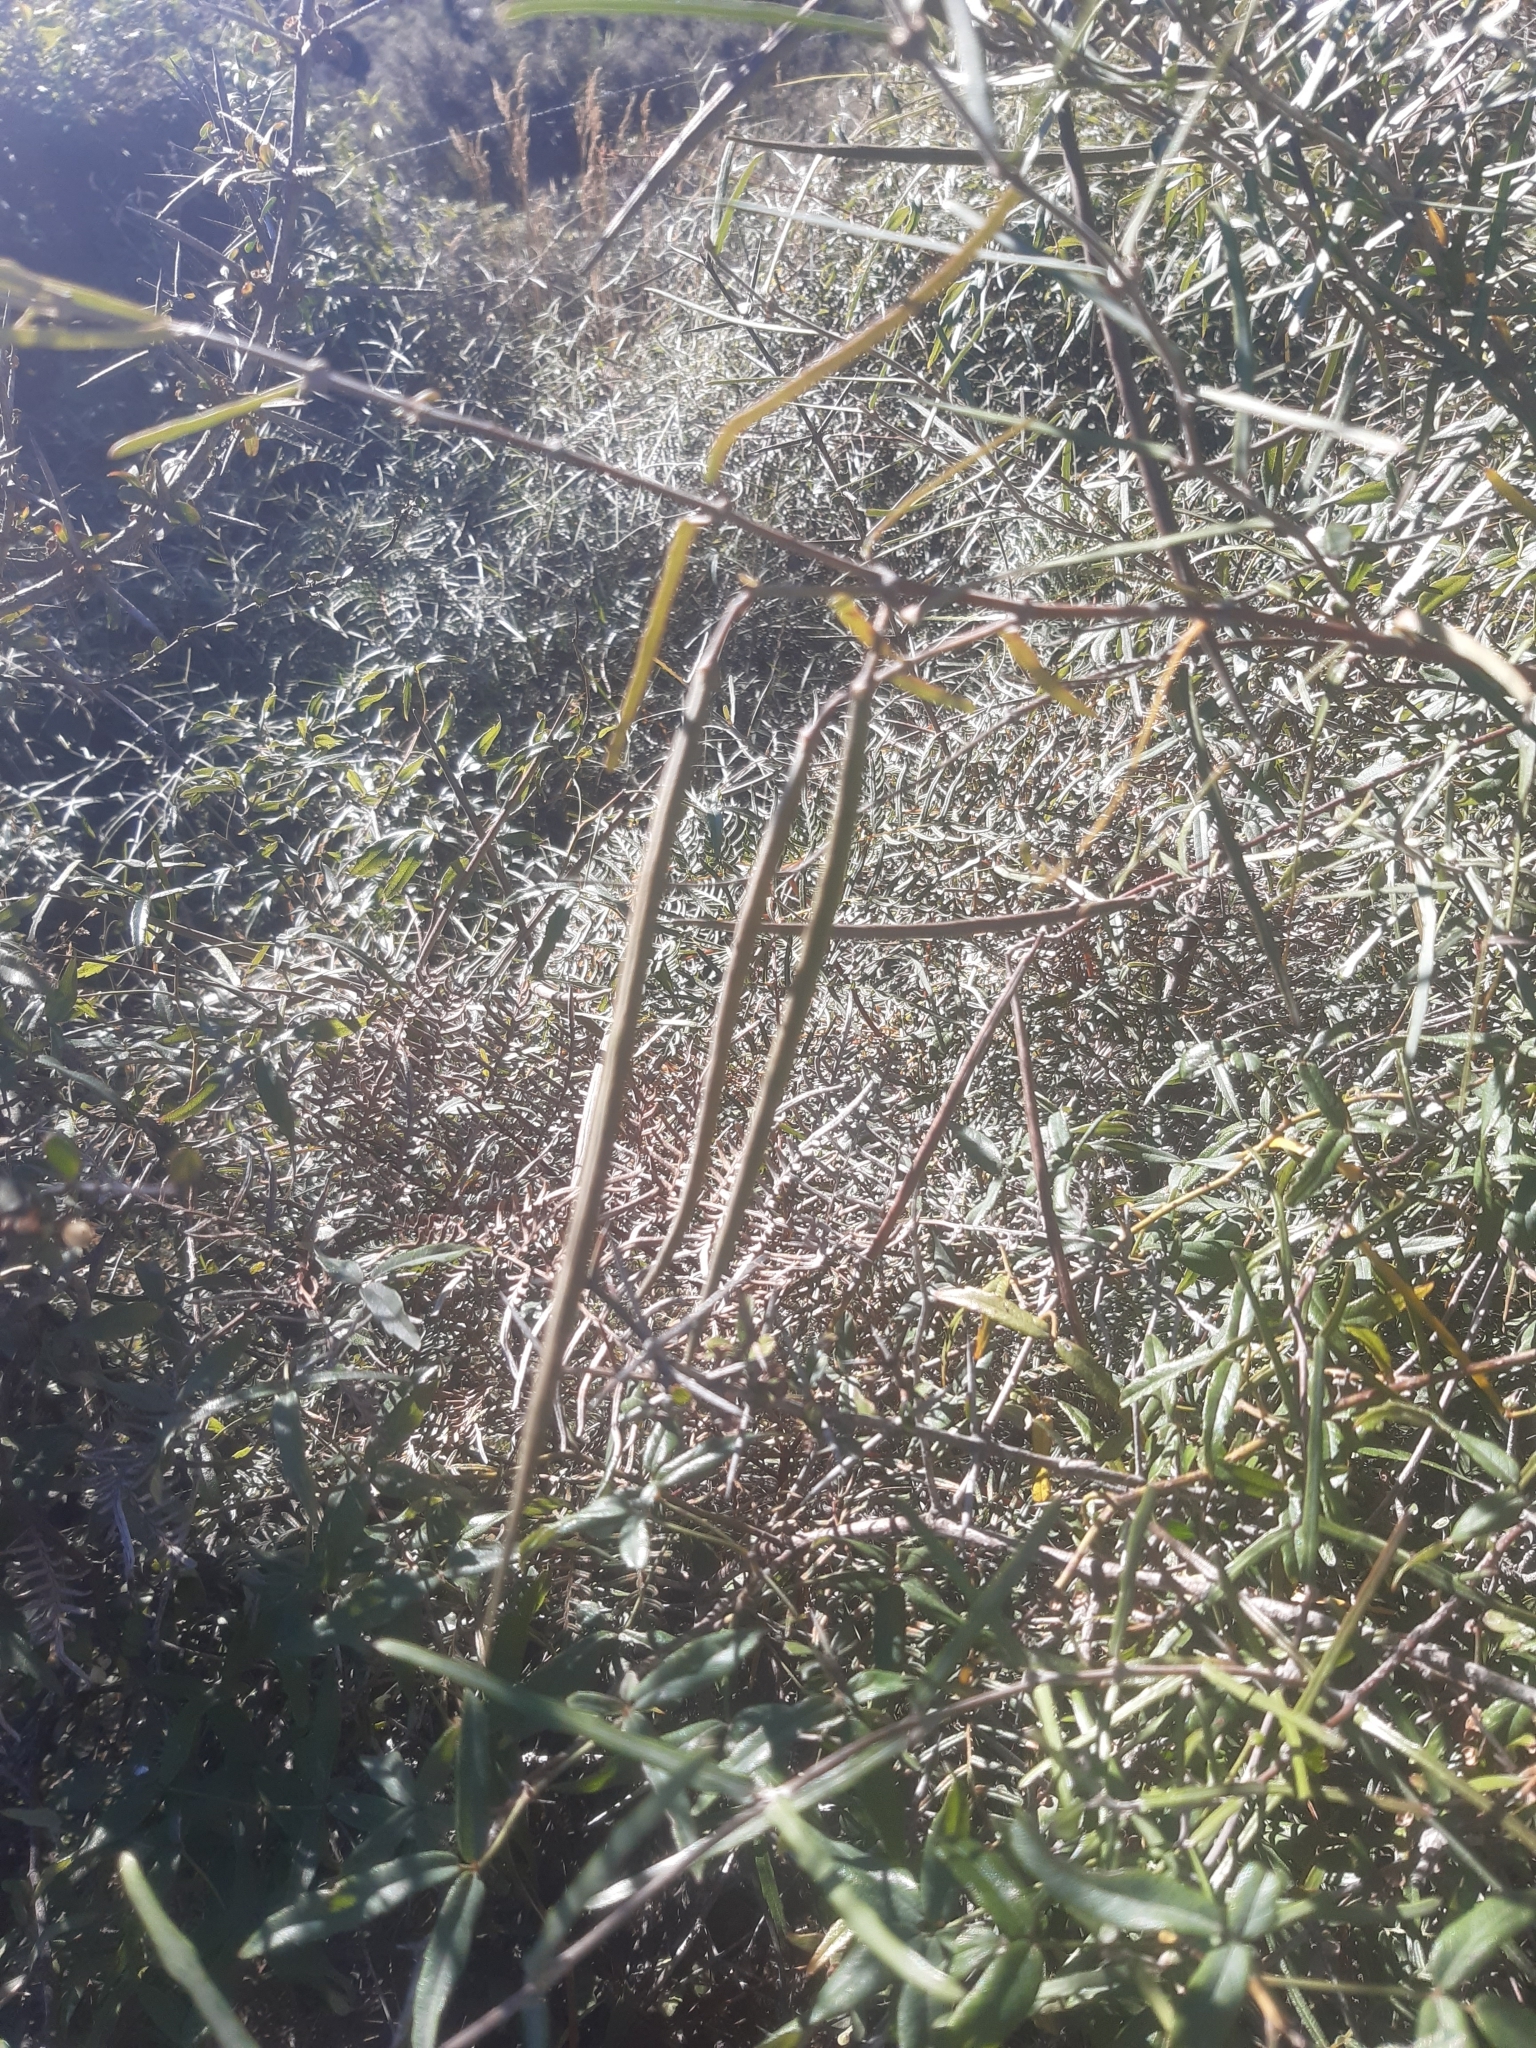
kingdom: Plantae
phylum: Tracheophyta
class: Magnoliopsida
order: Gentianales
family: Apocynaceae
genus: Parsonsia
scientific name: Parsonsia capsularis
